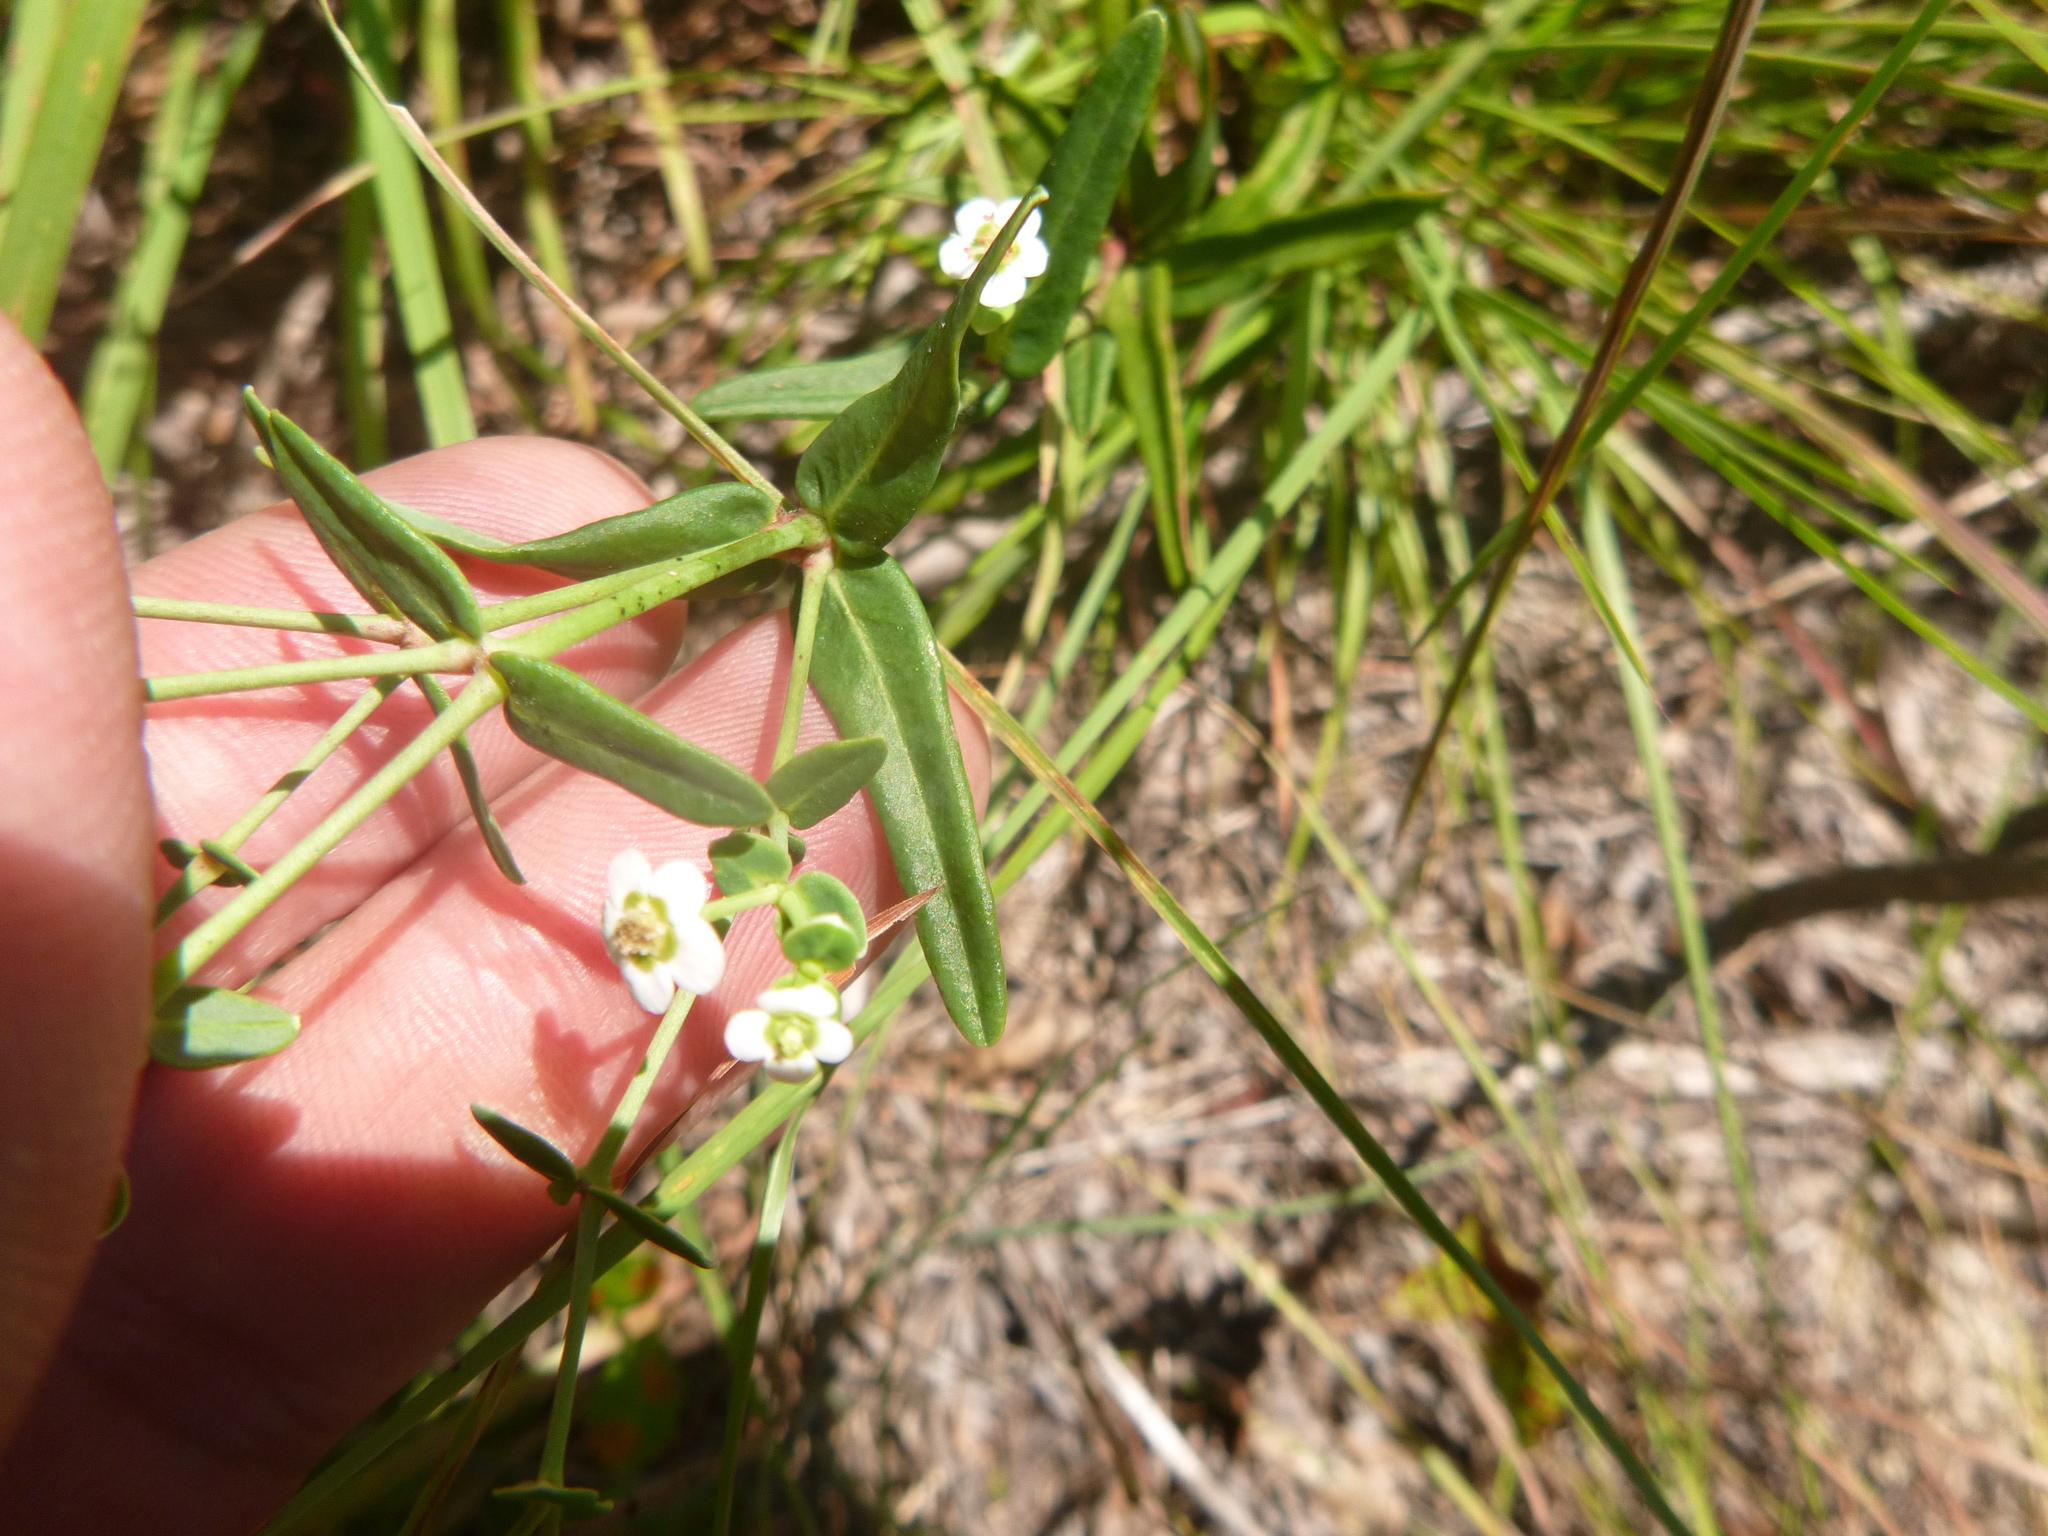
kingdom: Plantae
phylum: Tracheophyta
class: Magnoliopsida
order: Malpighiales
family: Euphorbiaceae
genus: Euphorbia
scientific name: Euphorbia discoidalis
